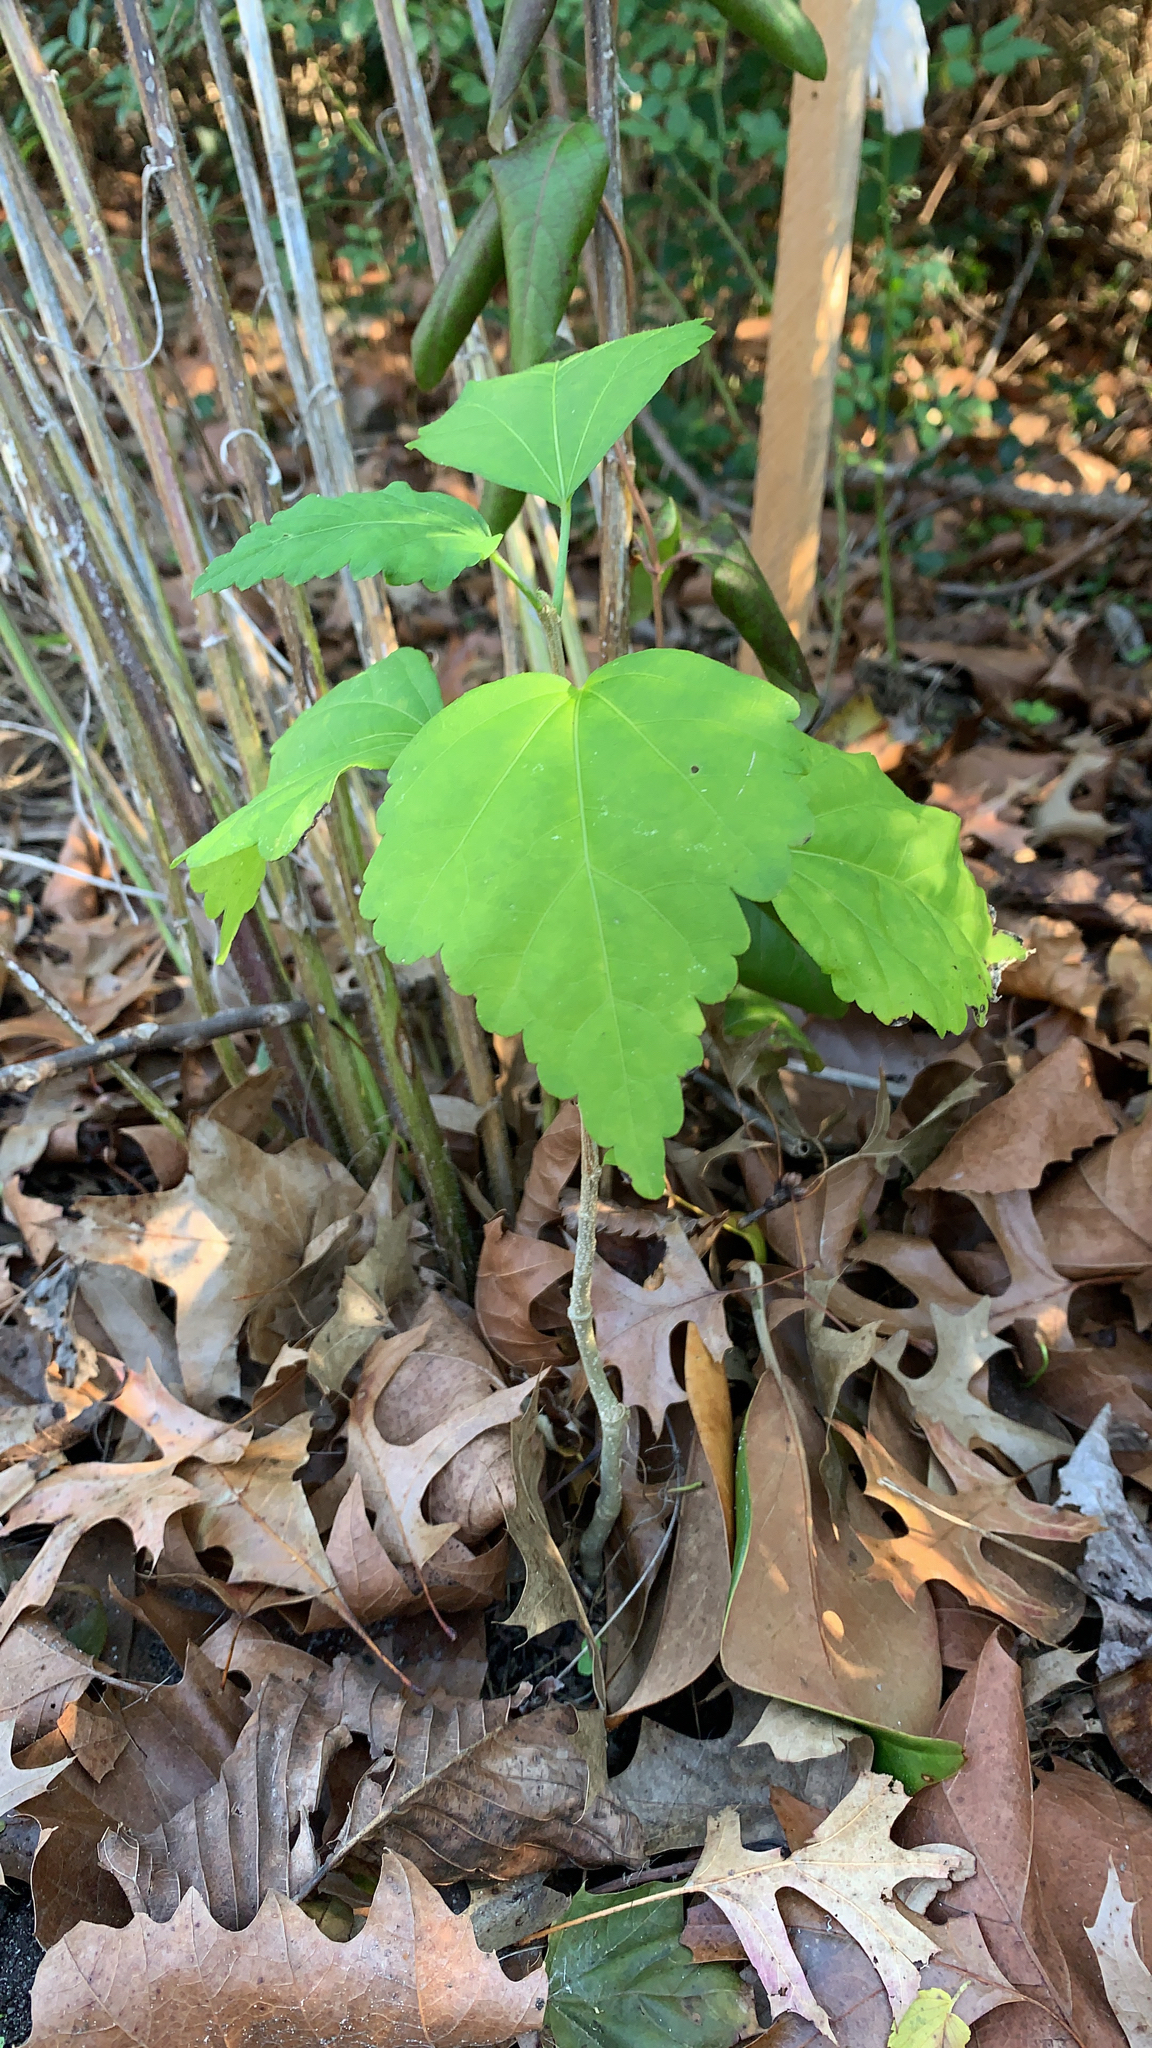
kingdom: Plantae
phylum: Tracheophyta
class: Magnoliopsida
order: Malvales
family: Malvaceae
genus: Hibiscus
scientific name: Hibiscus syriacus
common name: Syrian ketmia
